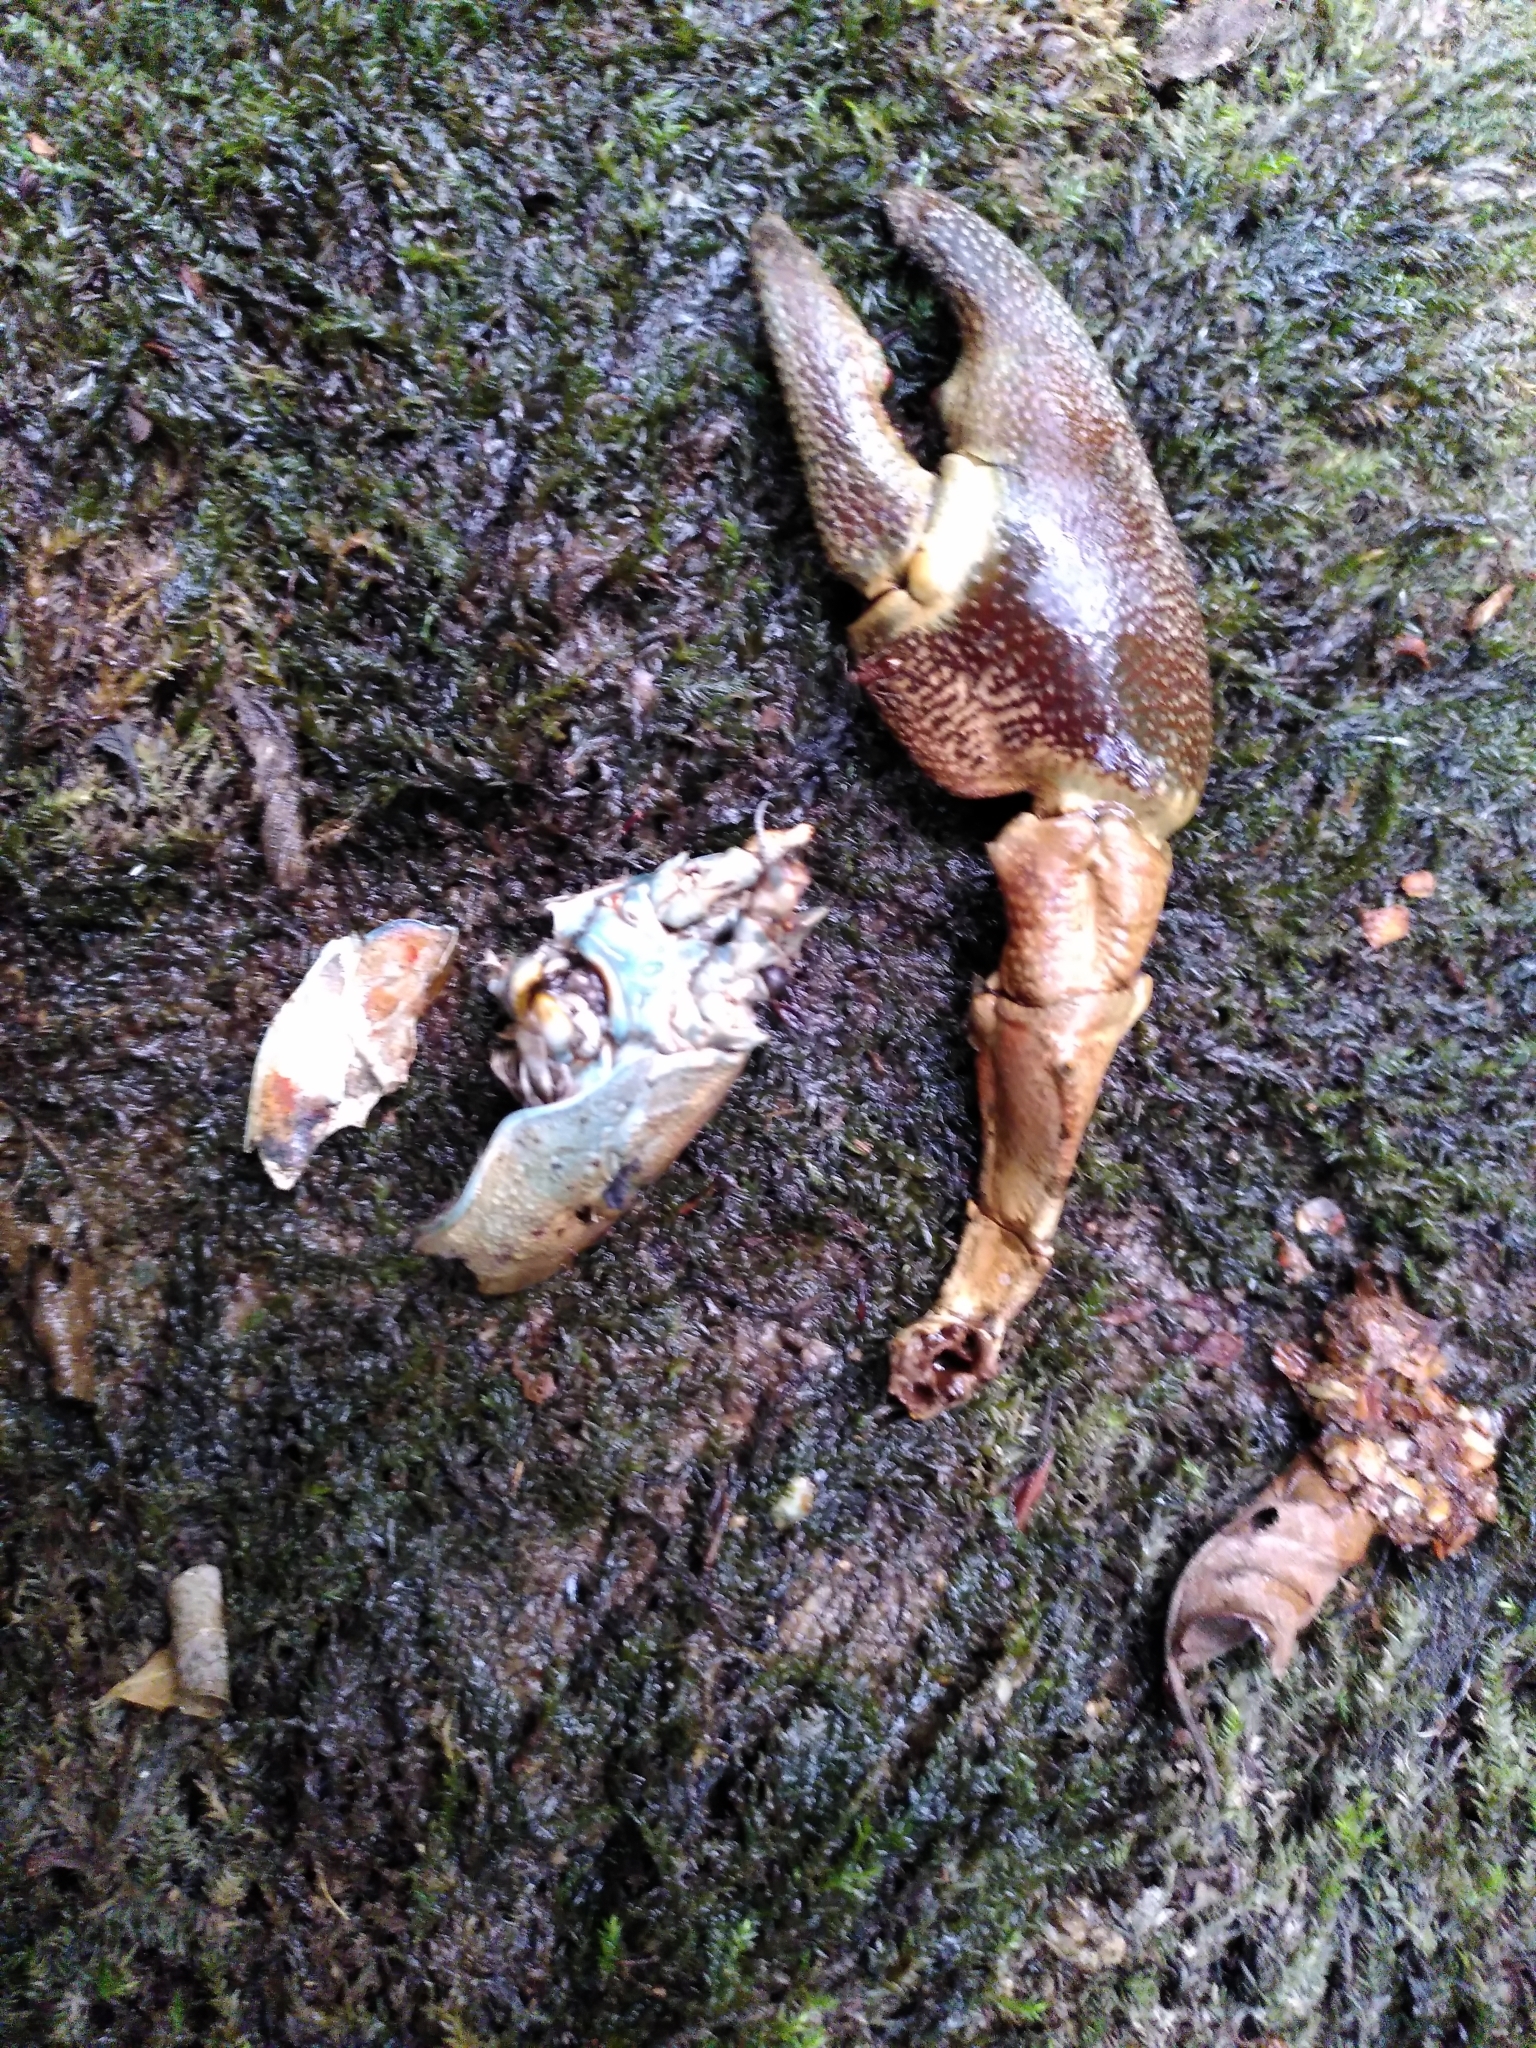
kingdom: Animalia
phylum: Arthropoda
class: Malacostraca
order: Decapoda
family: Astacidae
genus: Pacifastacus
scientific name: Pacifastacus leniusculus
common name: Signal crayfish
